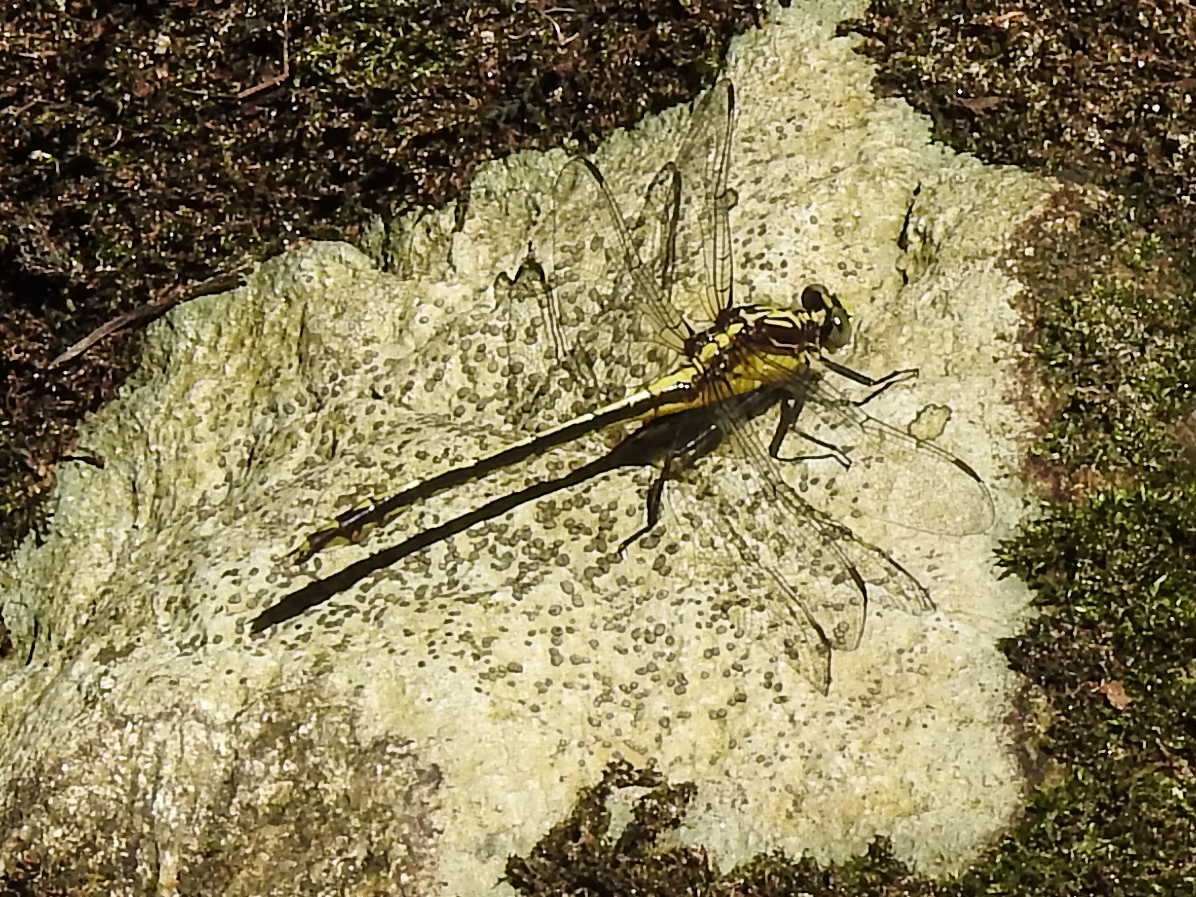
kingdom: Animalia
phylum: Arthropoda
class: Insecta
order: Odonata
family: Gomphidae
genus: Dromogomphus
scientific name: Dromogomphus spinosus
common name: Black-shouldered spinyleg
